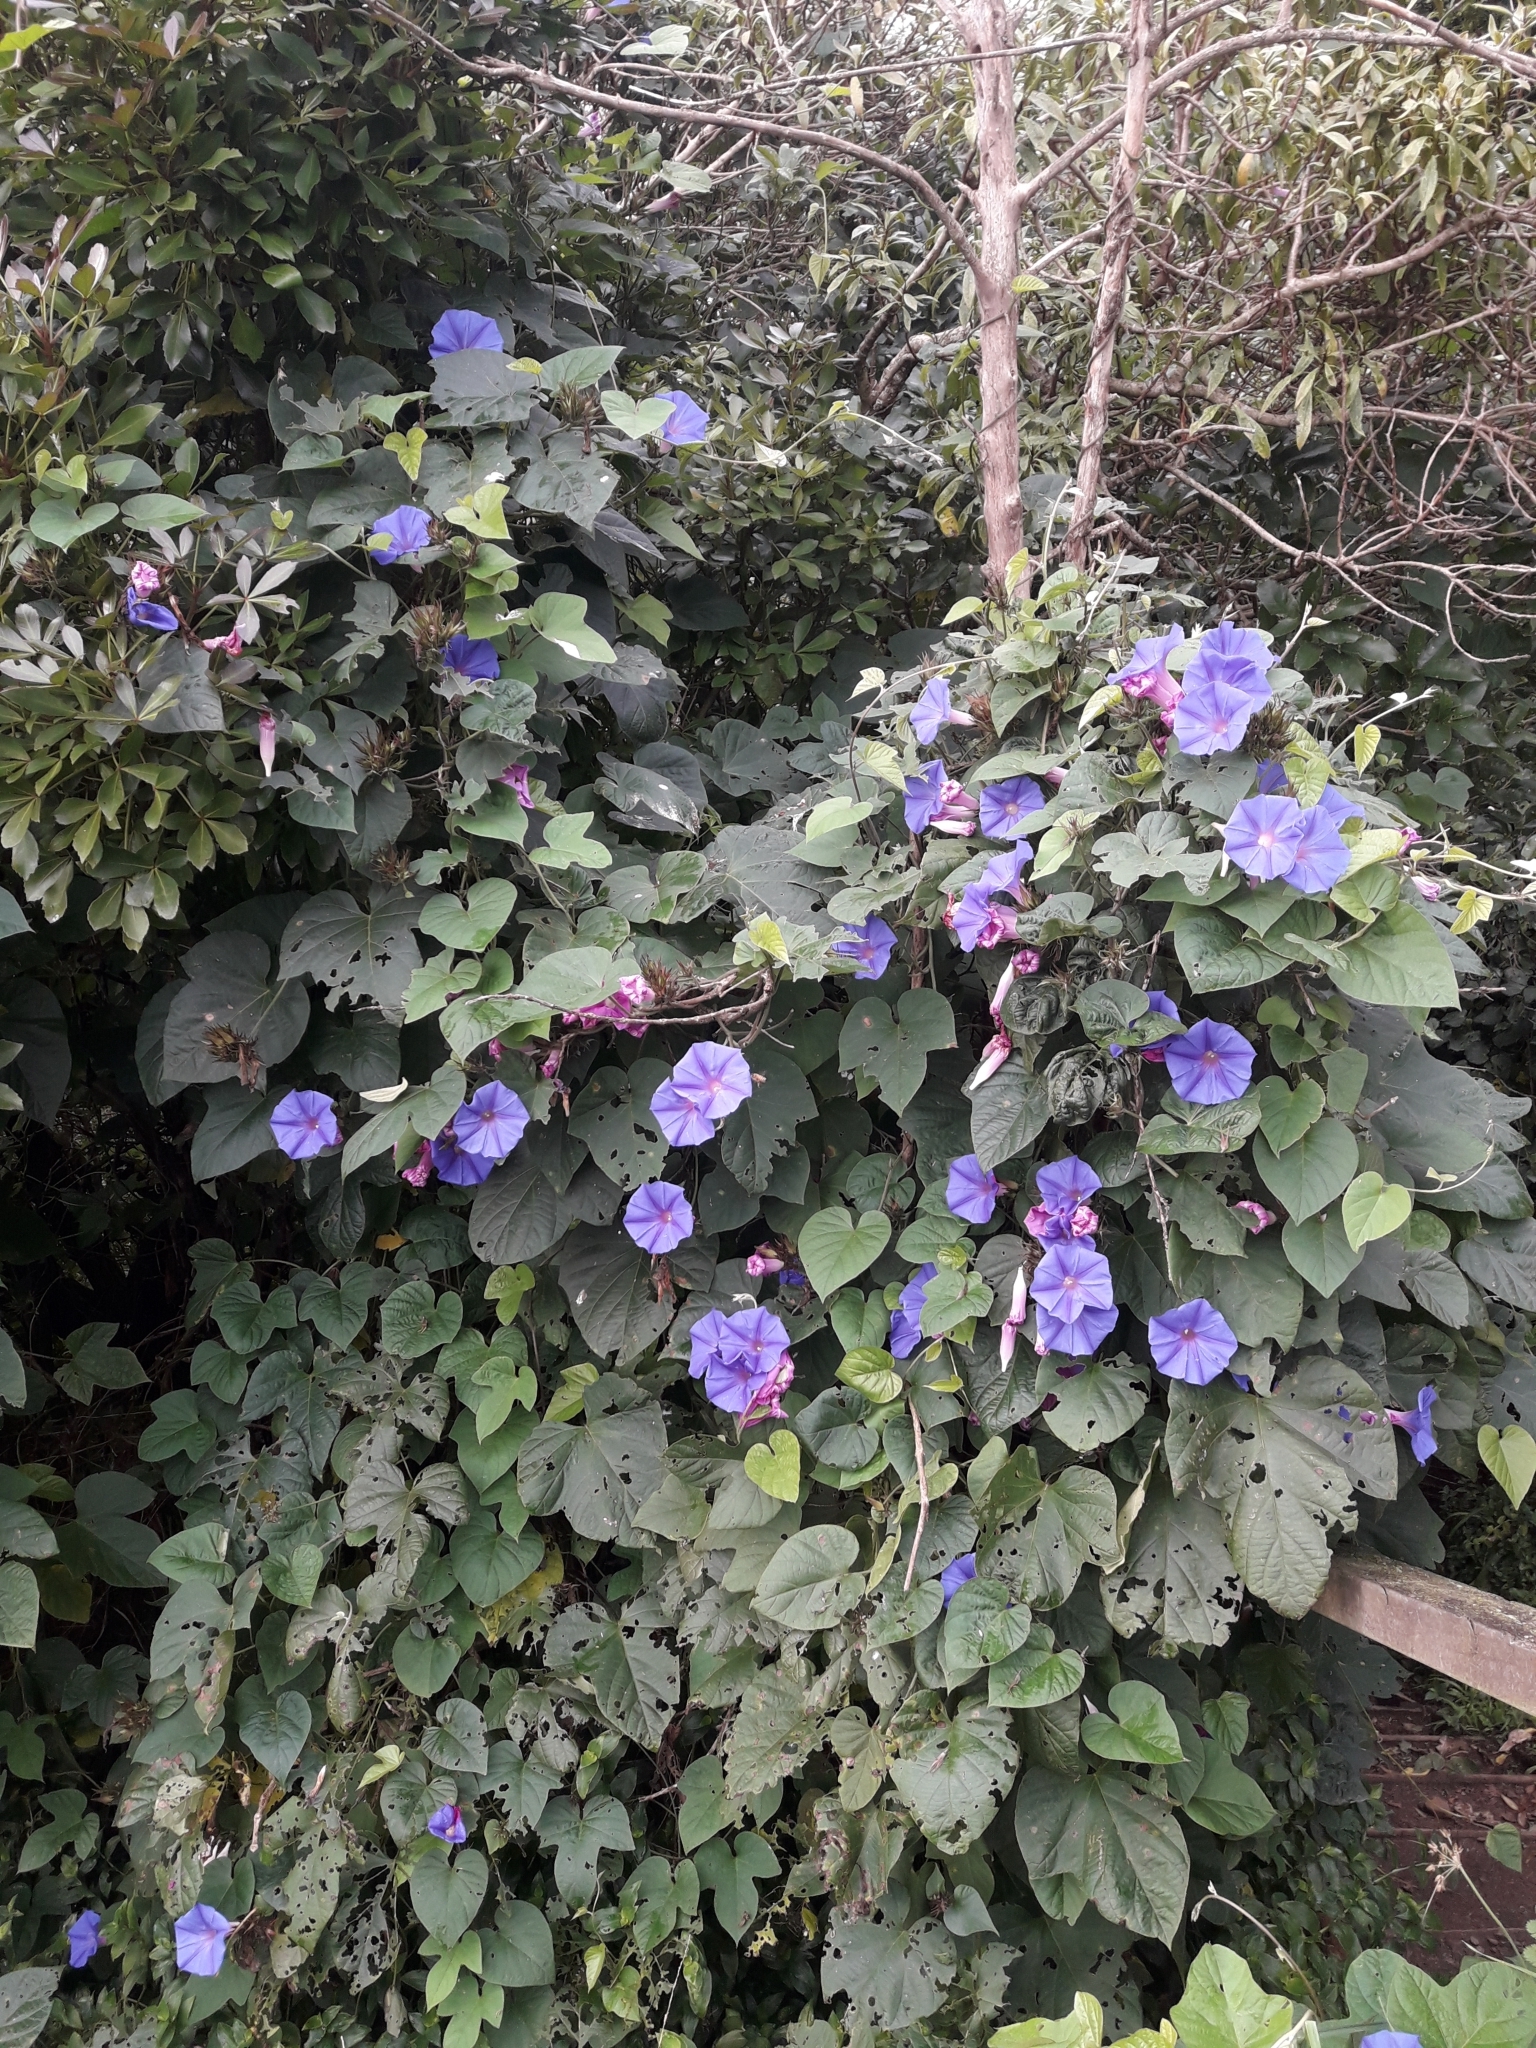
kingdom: Plantae
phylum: Tracheophyta
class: Magnoliopsida
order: Solanales
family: Convolvulaceae
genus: Ipomoea
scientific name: Ipomoea indica
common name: Blue dawnflower
